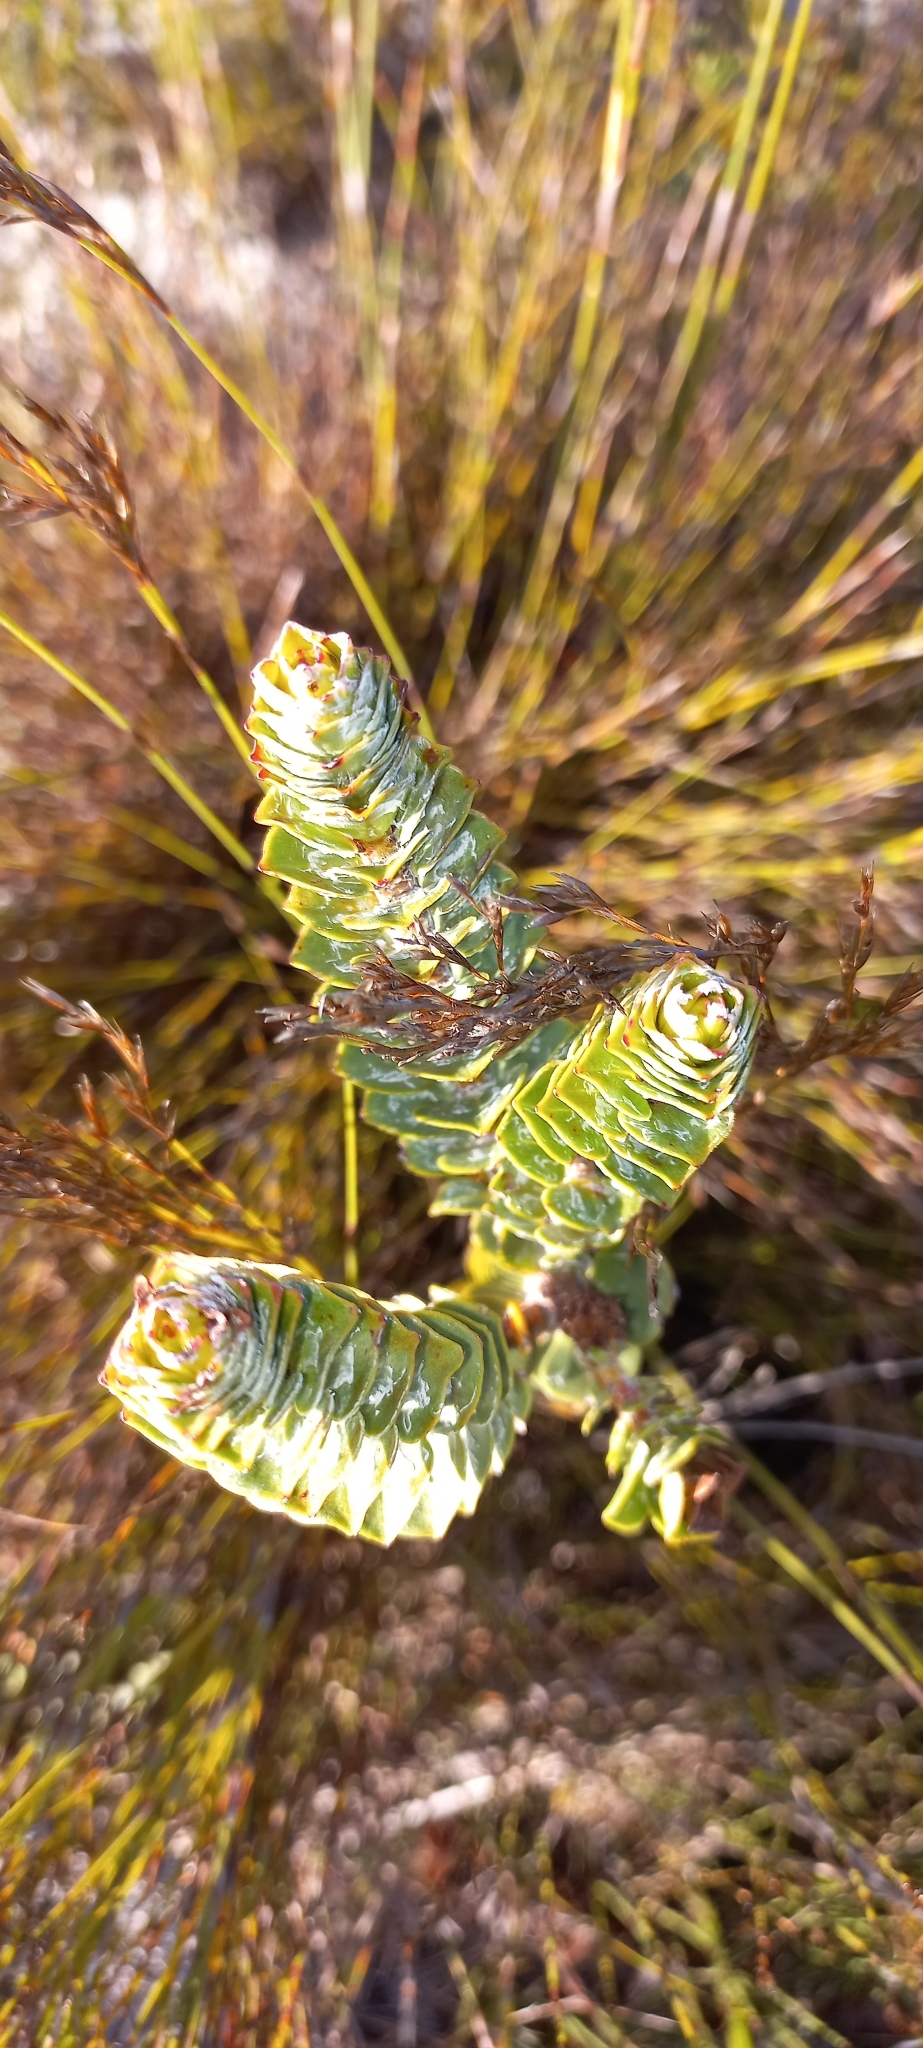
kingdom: Plantae
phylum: Tracheophyta
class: Magnoliopsida
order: Myrtales
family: Penaeaceae
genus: Saltera
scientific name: Saltera sarcocolla
